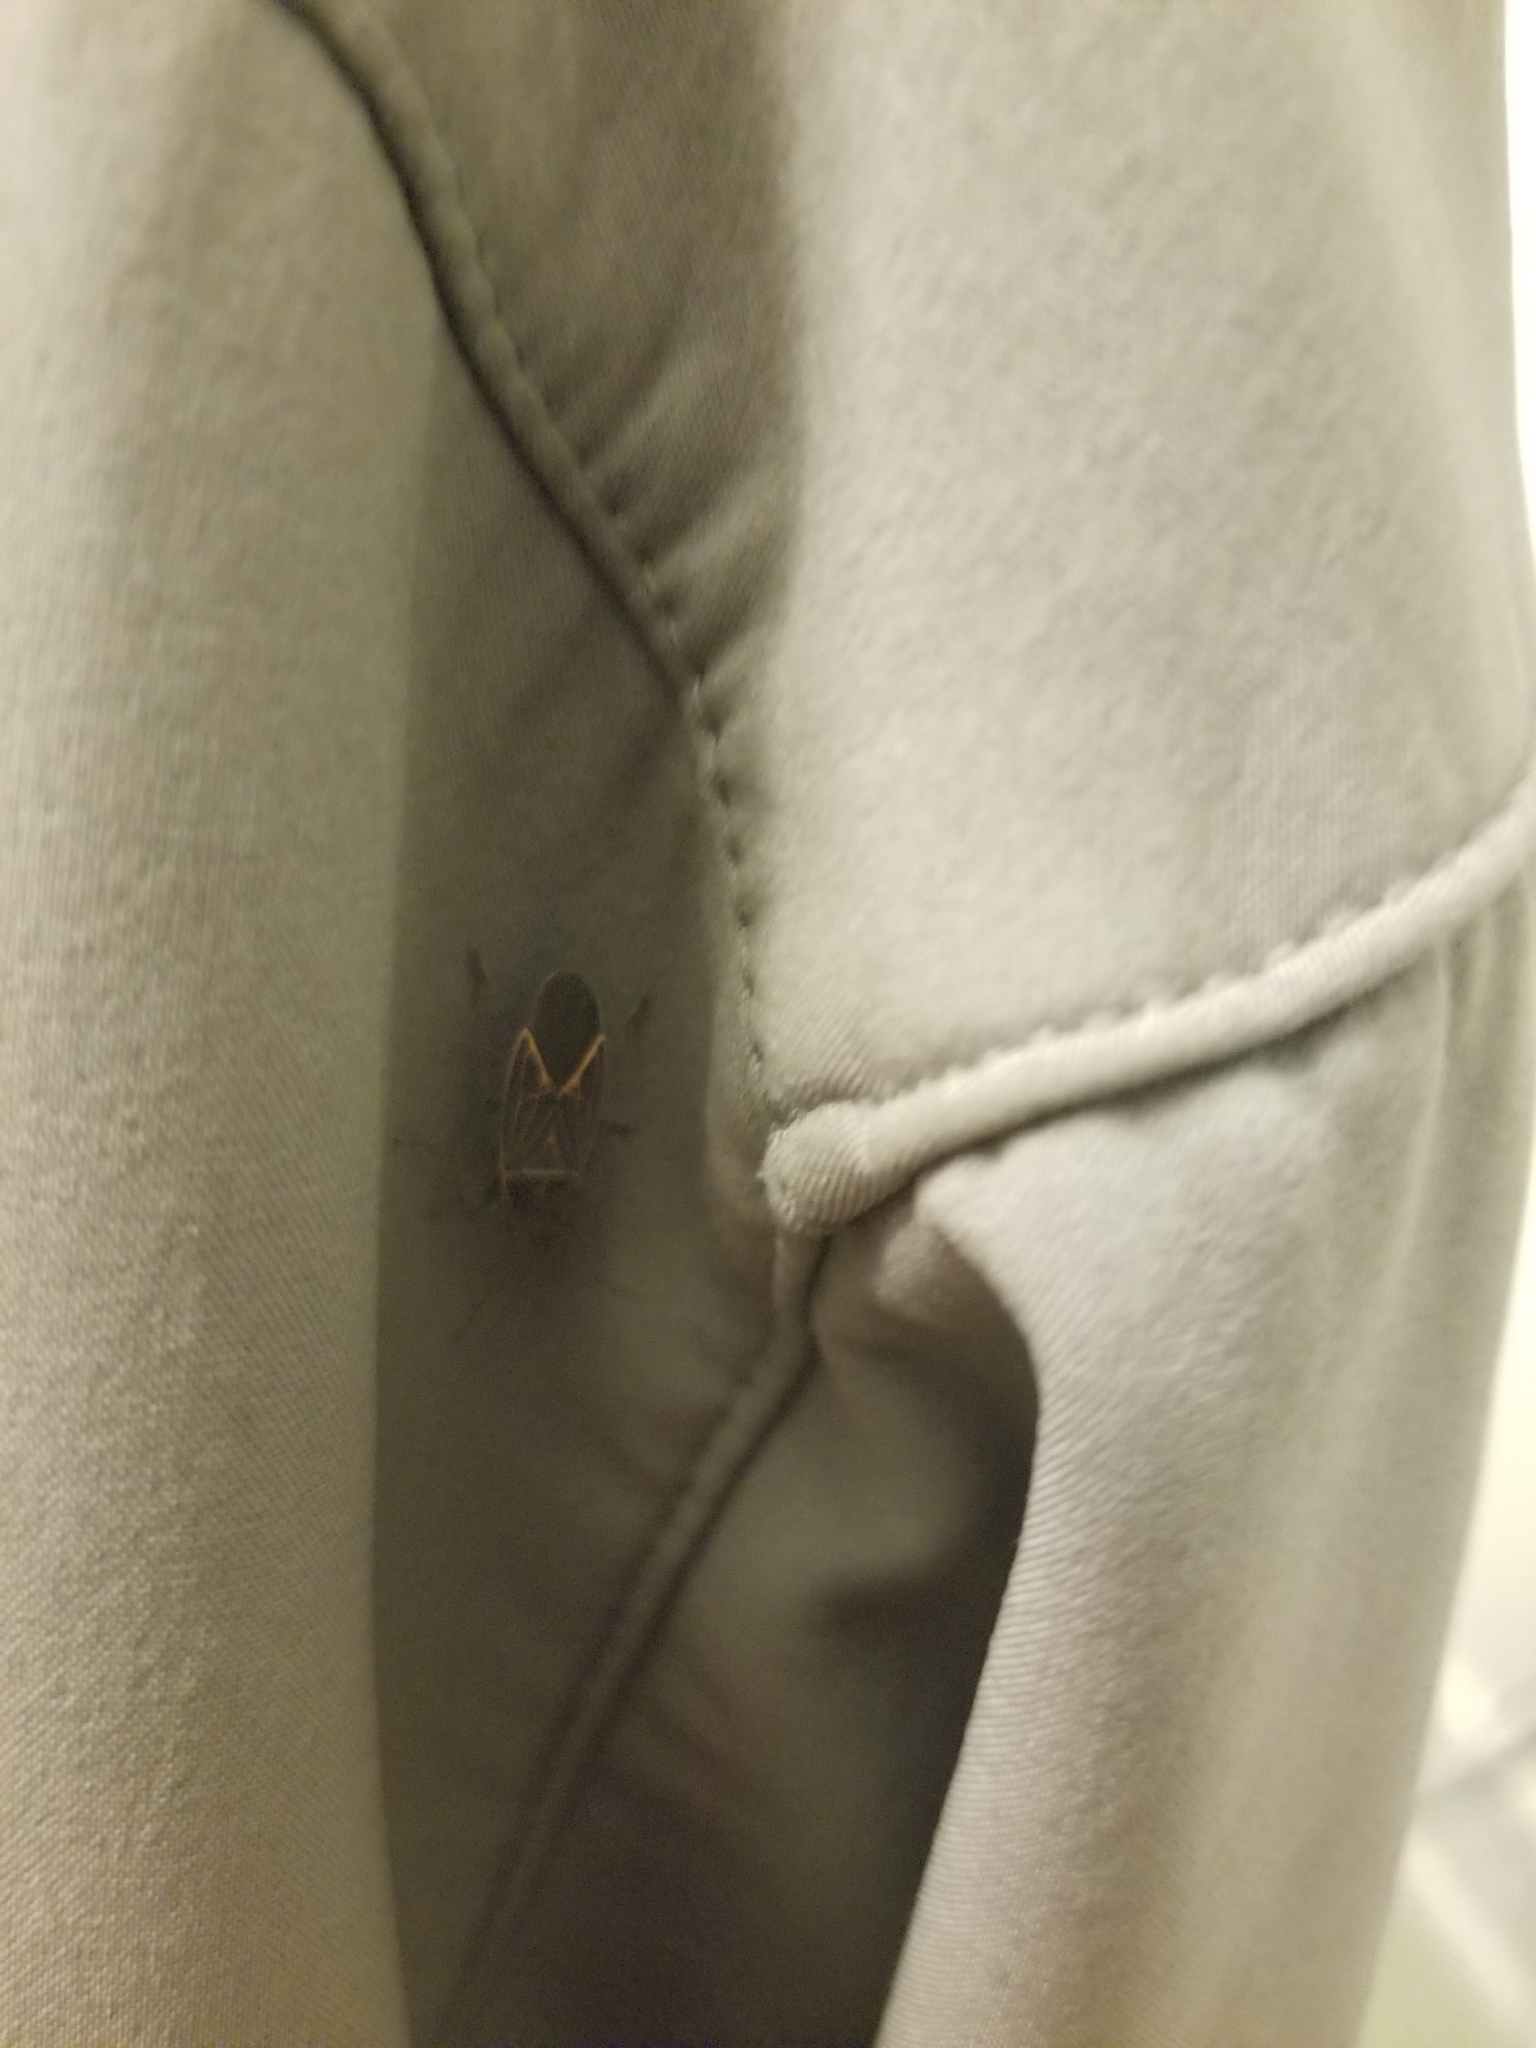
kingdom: Animalia
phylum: Arthropoda
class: Insecta
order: Hemiptera
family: Rhopalidae
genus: Boisea
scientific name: Boisea rubrolineata
